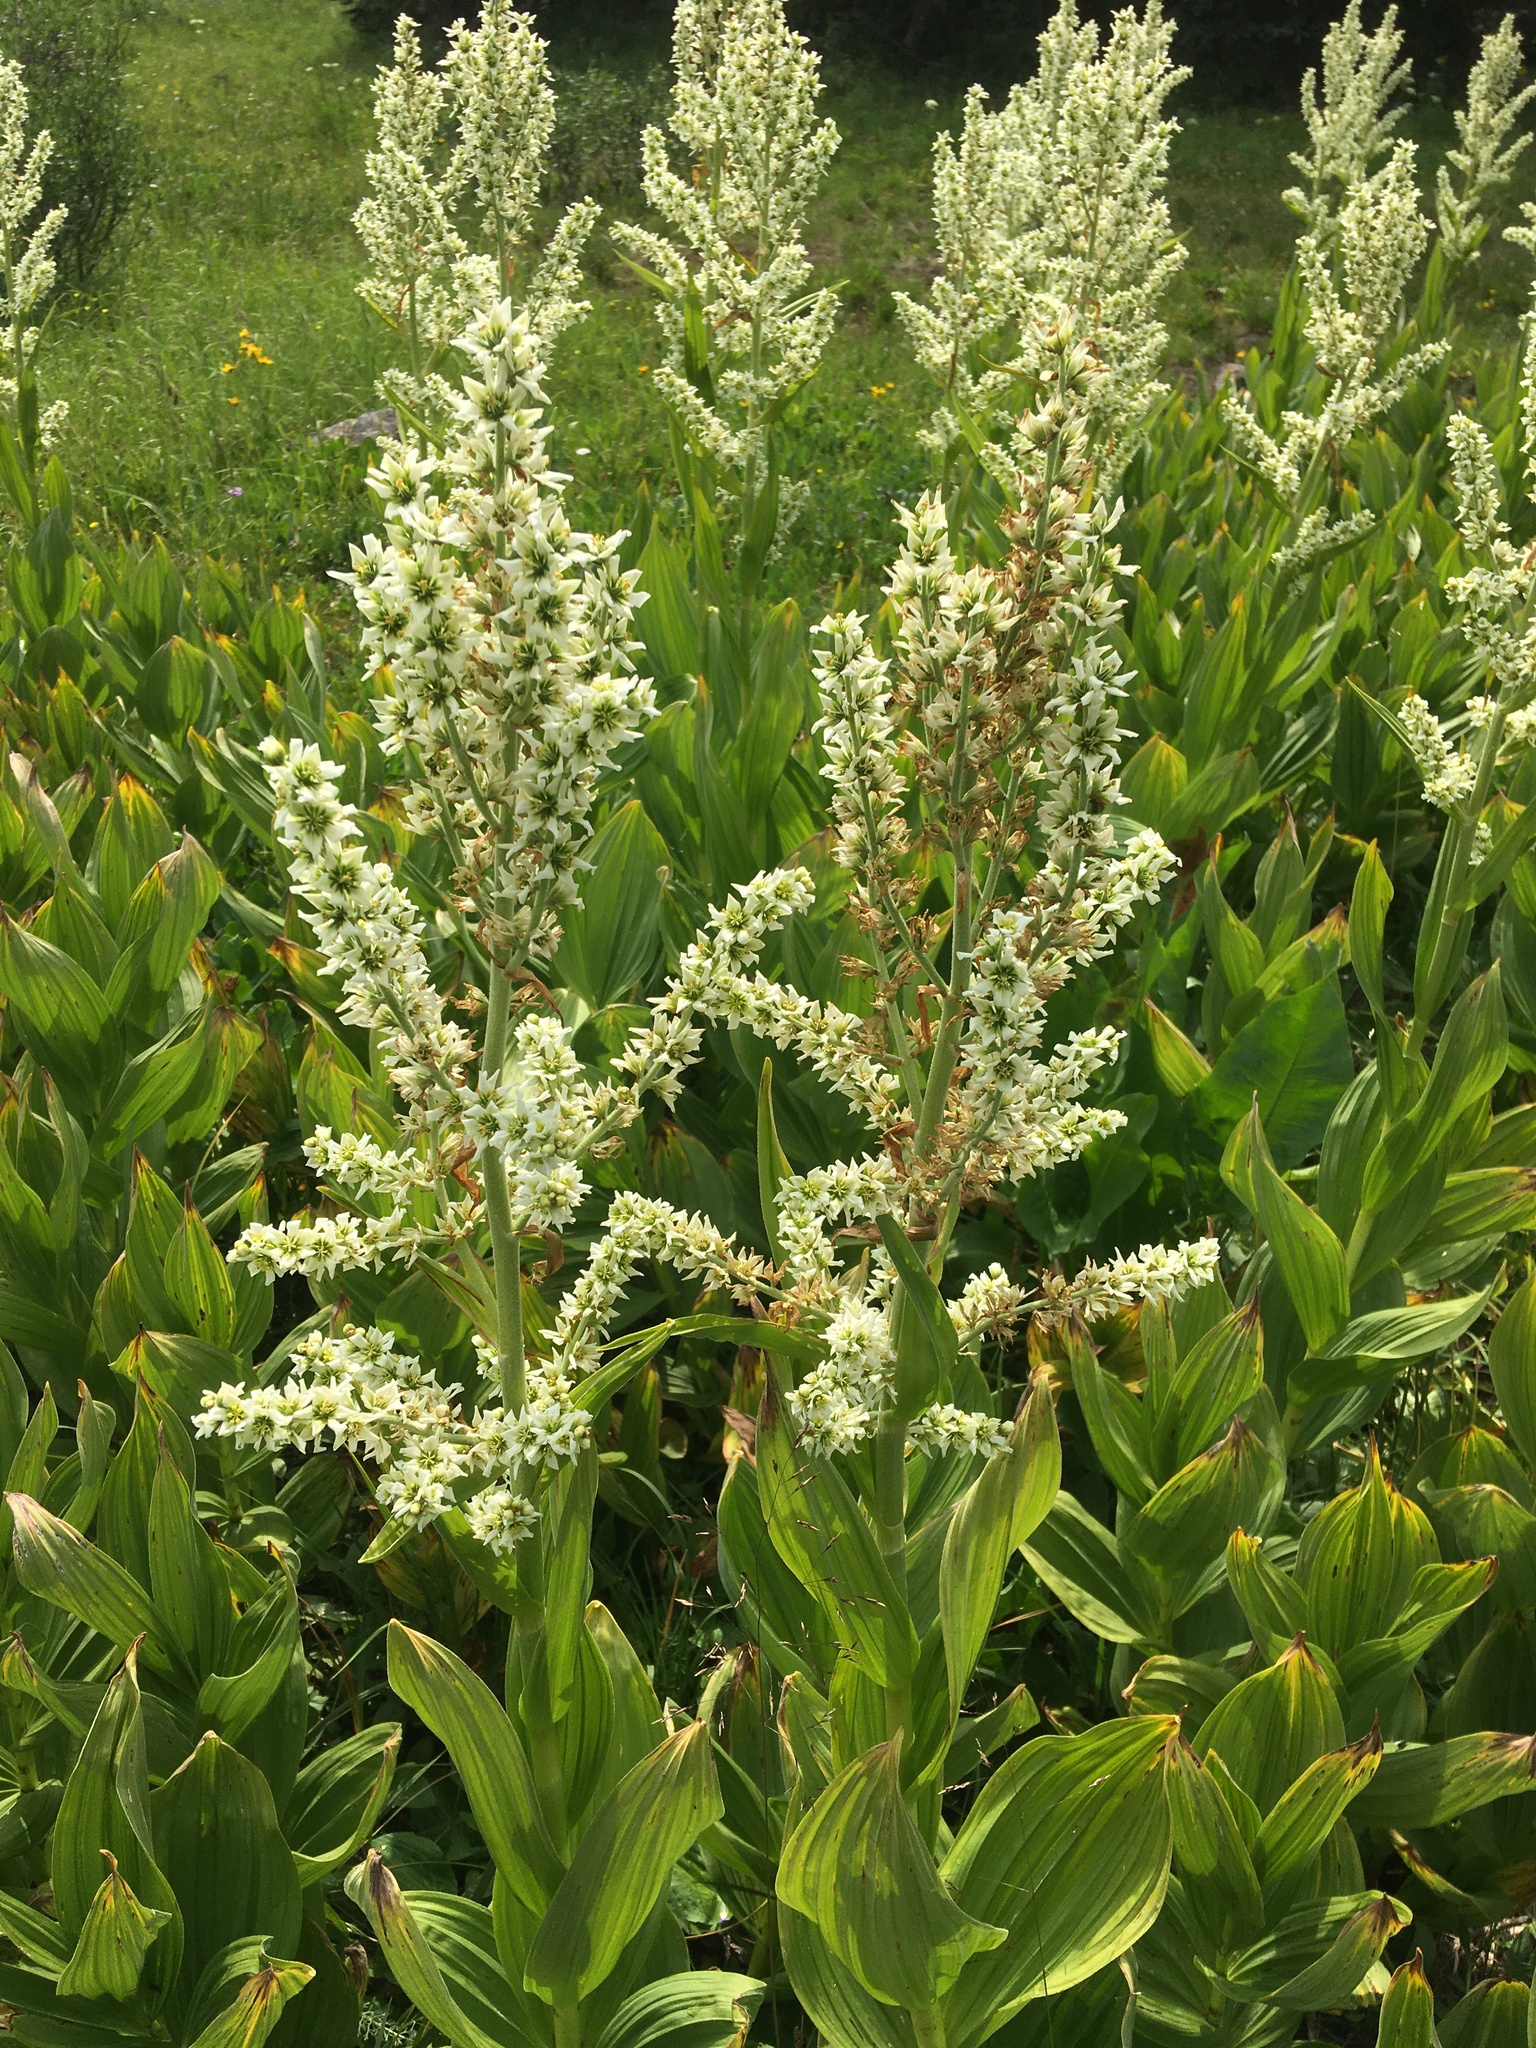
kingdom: Plantae
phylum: Tracheophyta
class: Liliopsida
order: Liliales
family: Melanthiaceae
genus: Veratrum
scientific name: Veratrum californicum
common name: California veratrum
